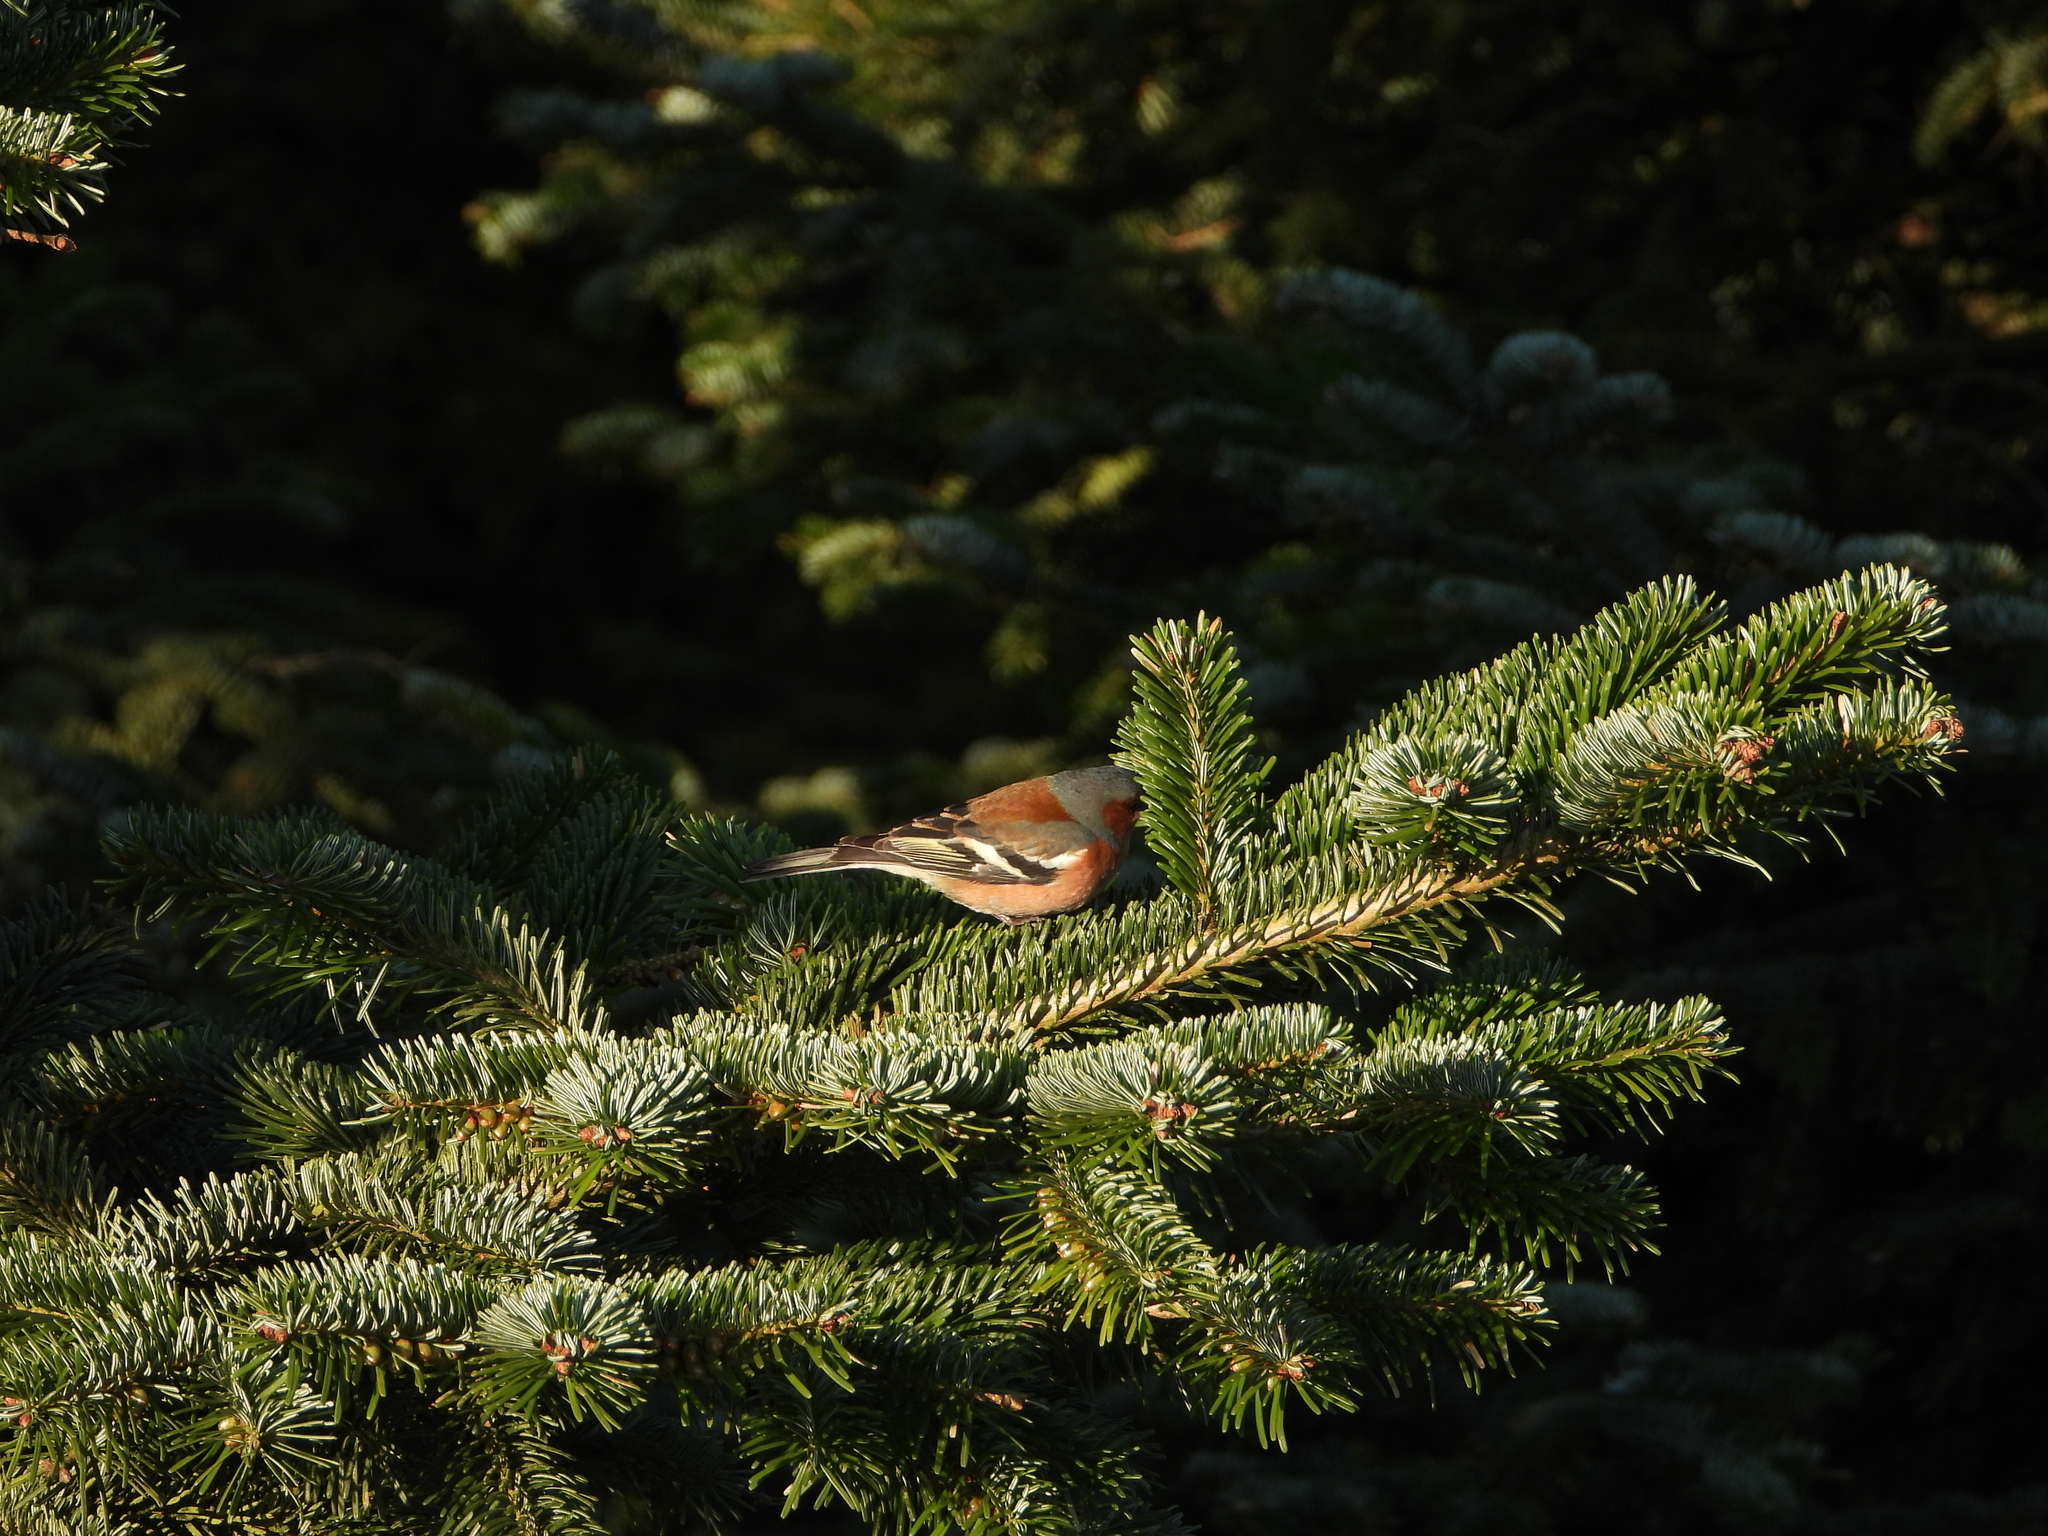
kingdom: Animalia
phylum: Chordata
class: Aves
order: Passeriformes
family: Fringillidae
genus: Fringilla
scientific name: Fringilla coelebs
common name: Common chaffinch
